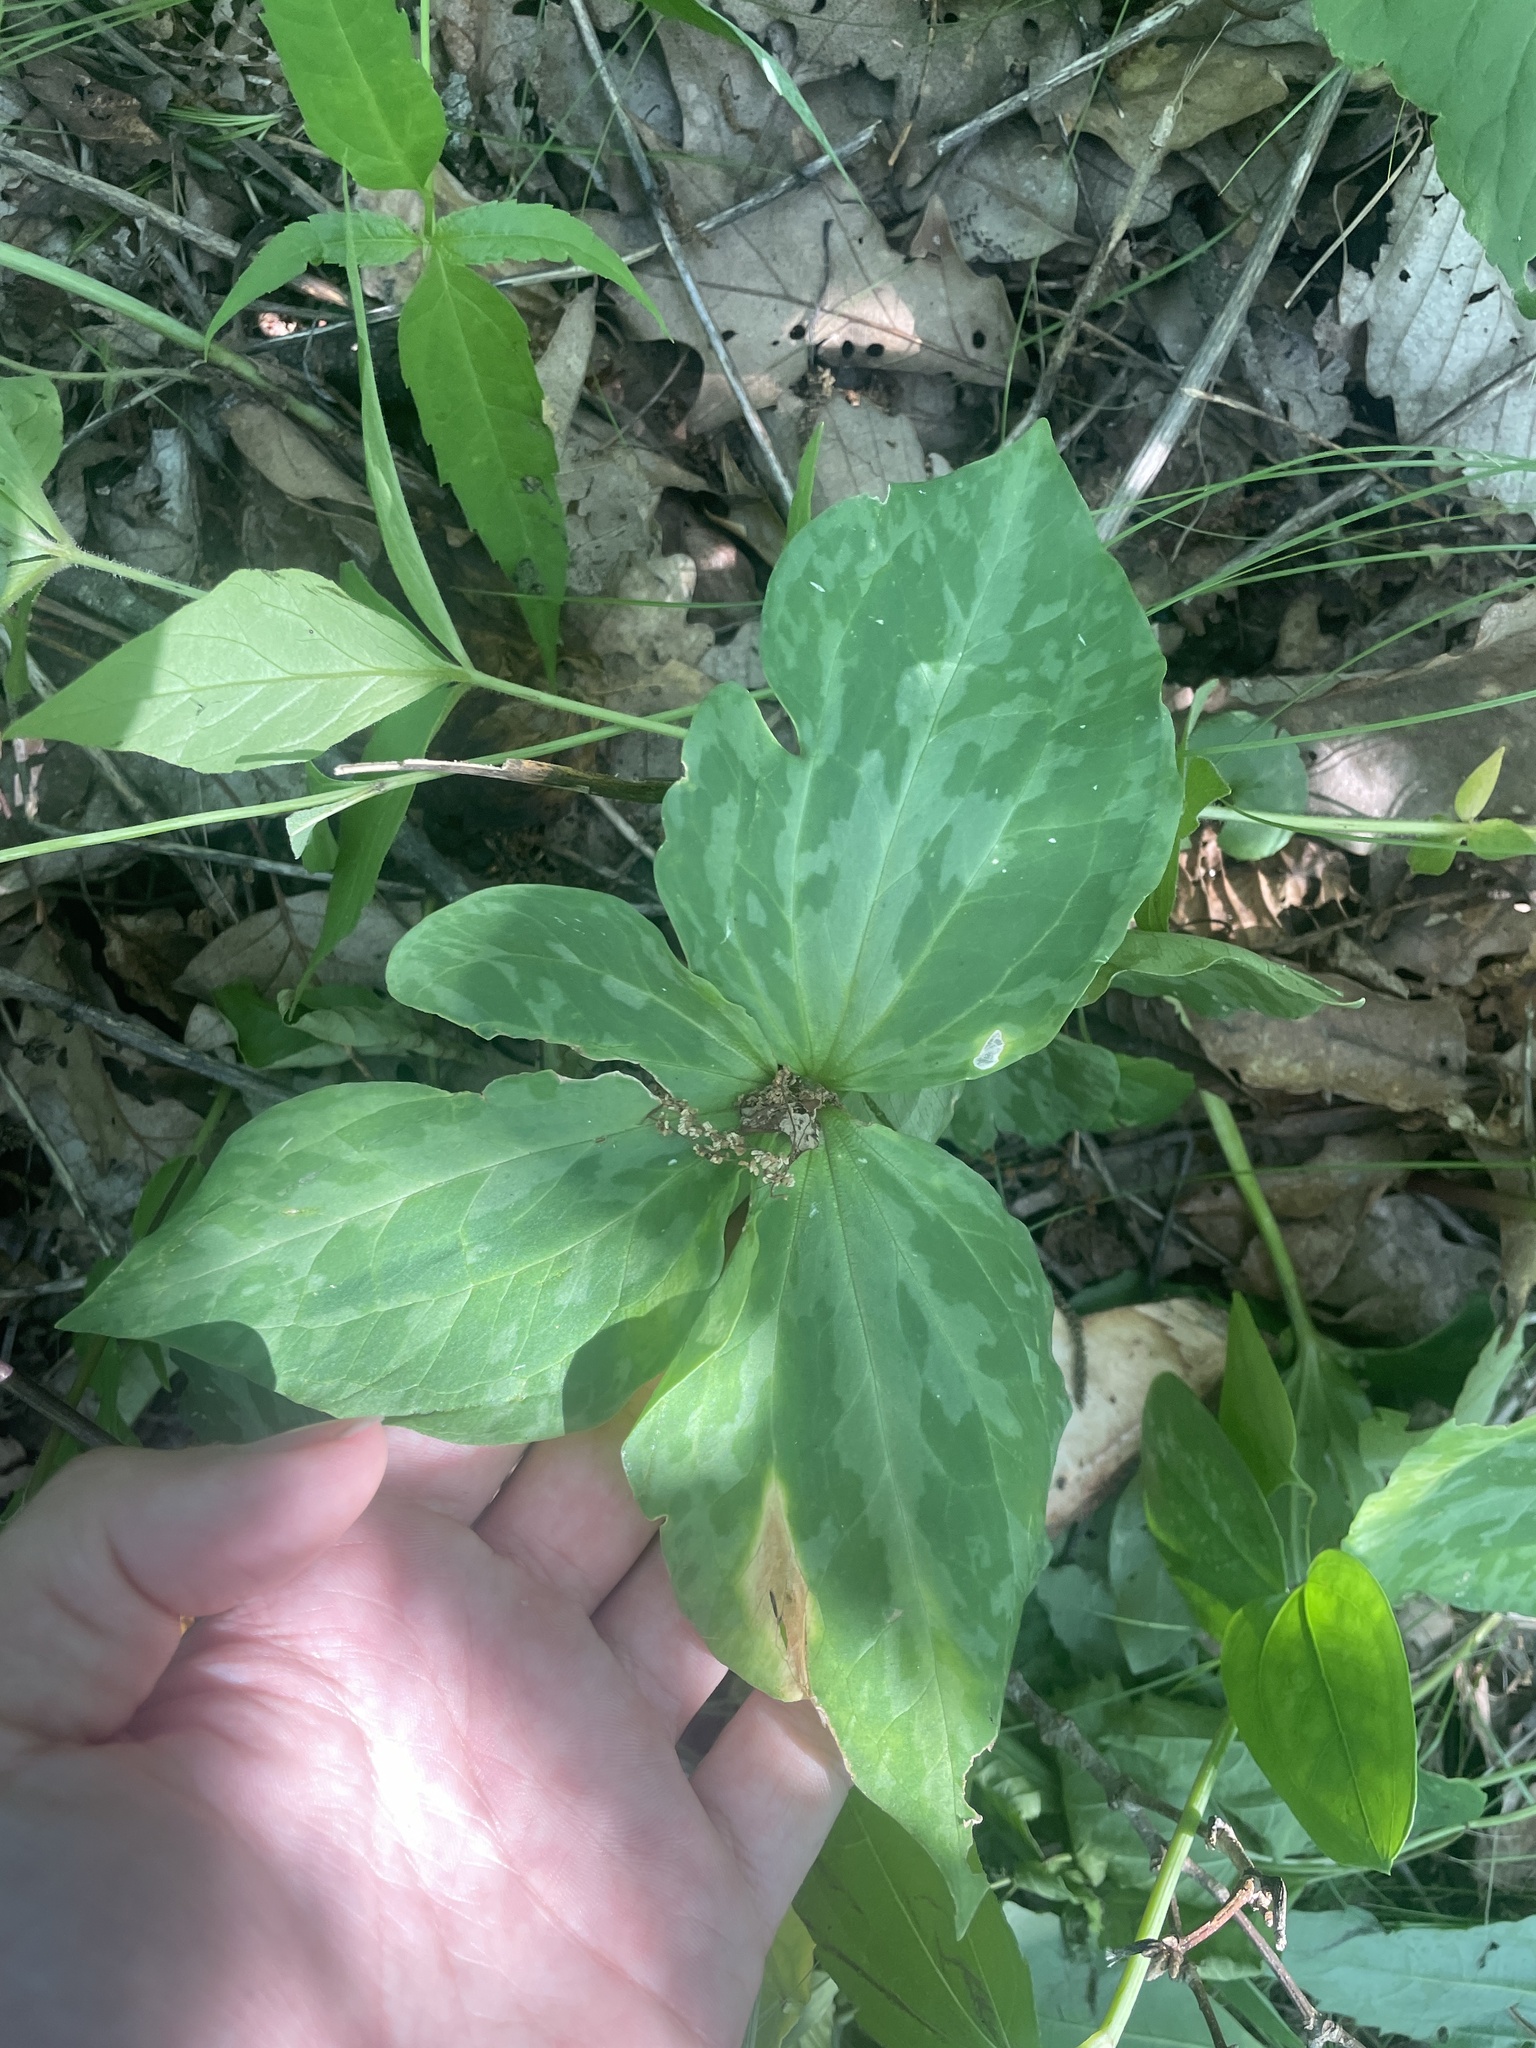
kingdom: Plantae
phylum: Tracheophyta
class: Liliopsida
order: Liliales
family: Melanthiaceae
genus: Trillium
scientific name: Trillium cuneatum
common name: Cuneate trillium
